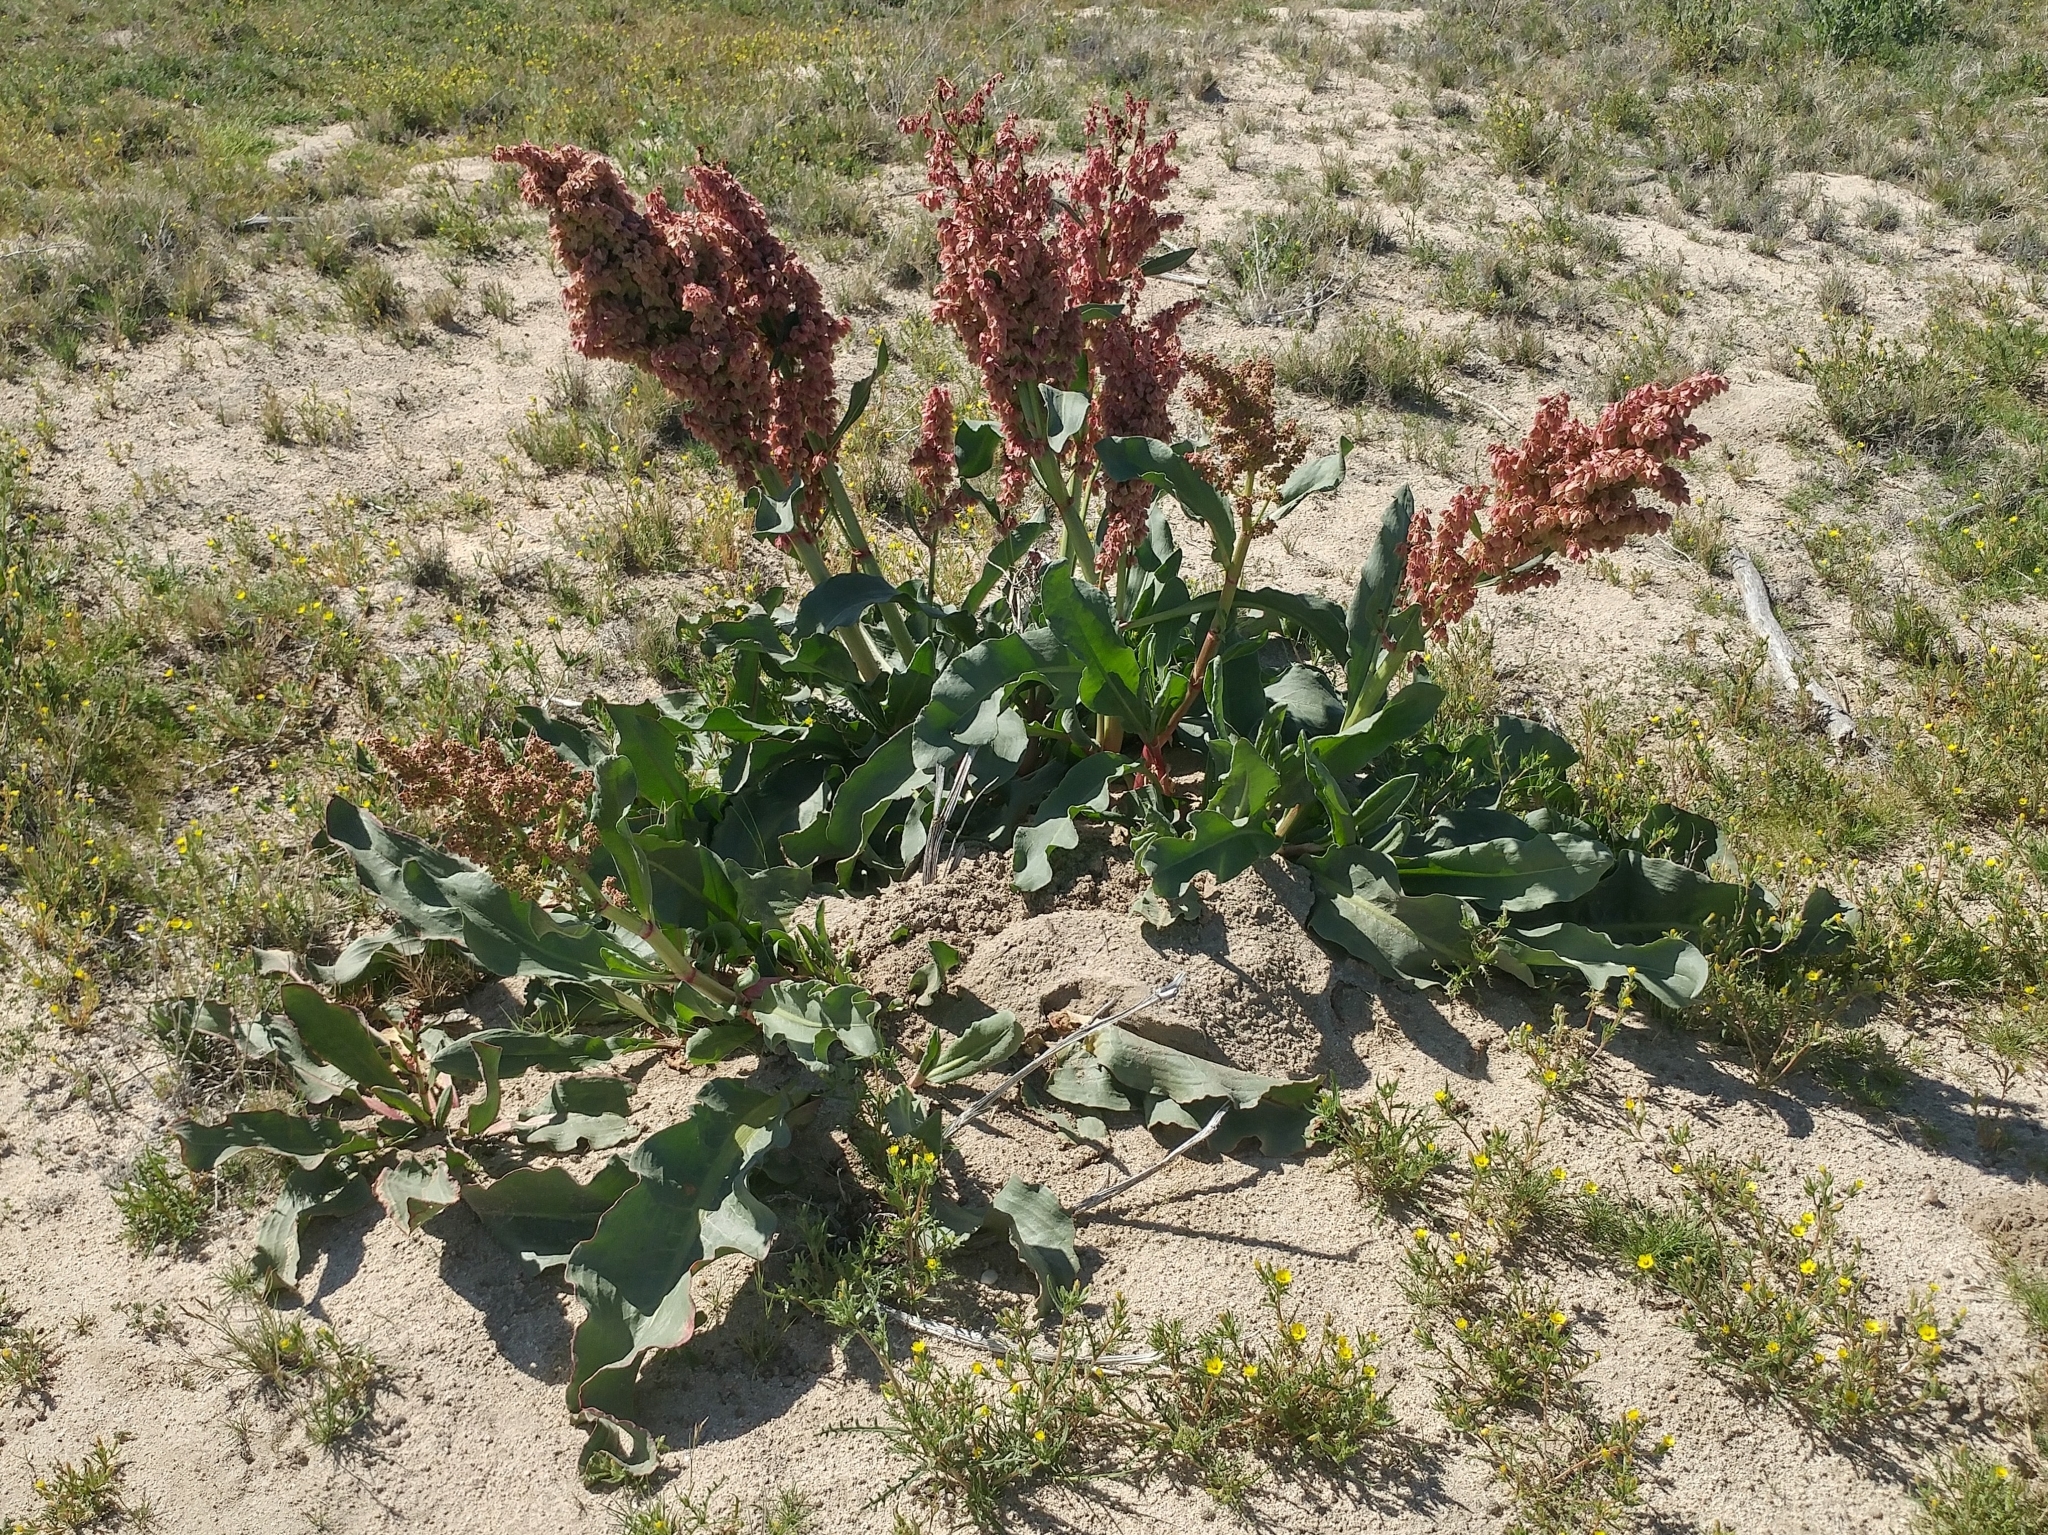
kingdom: Plantae
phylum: Tracheophyta
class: Magnoliopsida
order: Caryophyllales
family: Polygonaceae
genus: Rumex
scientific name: Rumex hymenosepalus
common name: Ganagra
